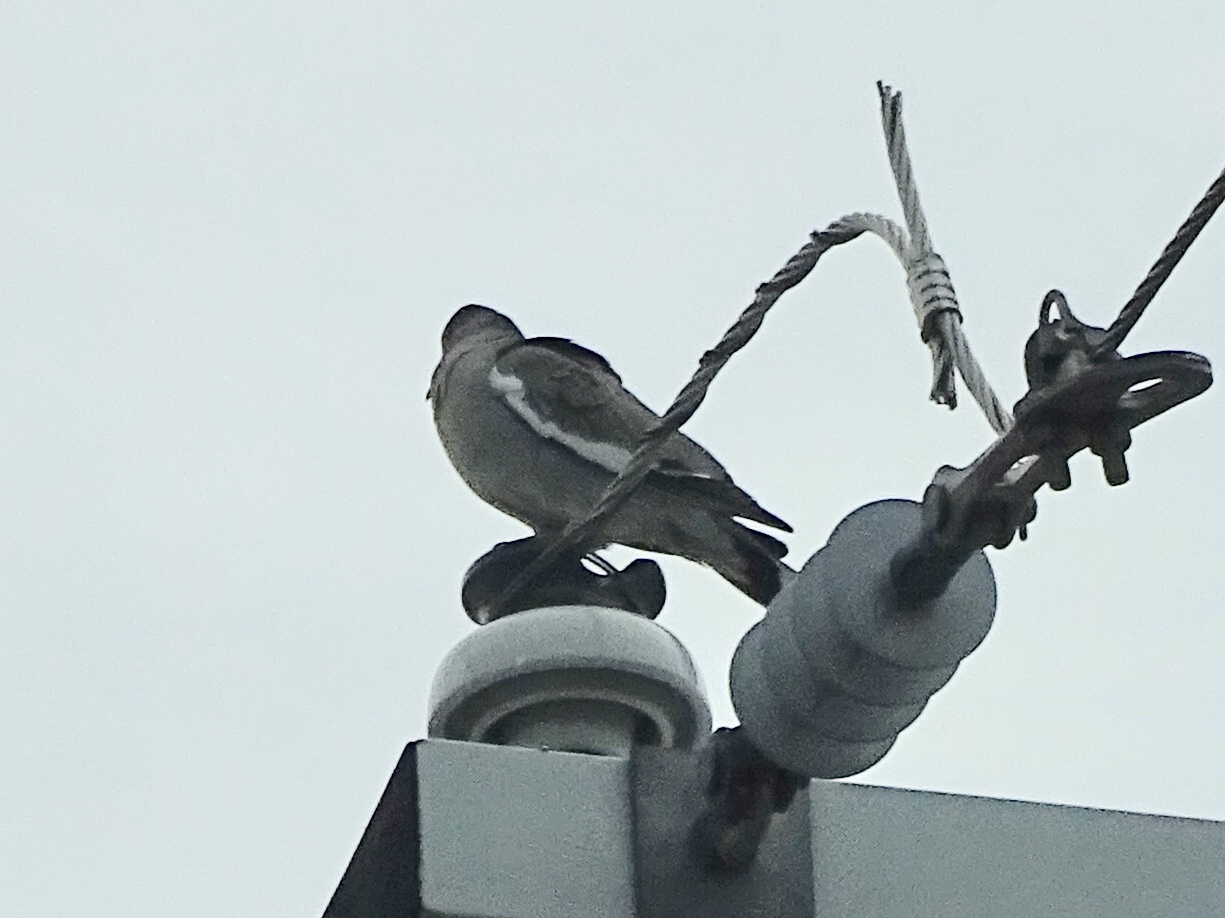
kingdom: Animalia
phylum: Chordata
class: Aves
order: Columbiformes
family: Columbidae
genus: Zenaida
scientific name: Zenaida asiatica
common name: White-winged dove
